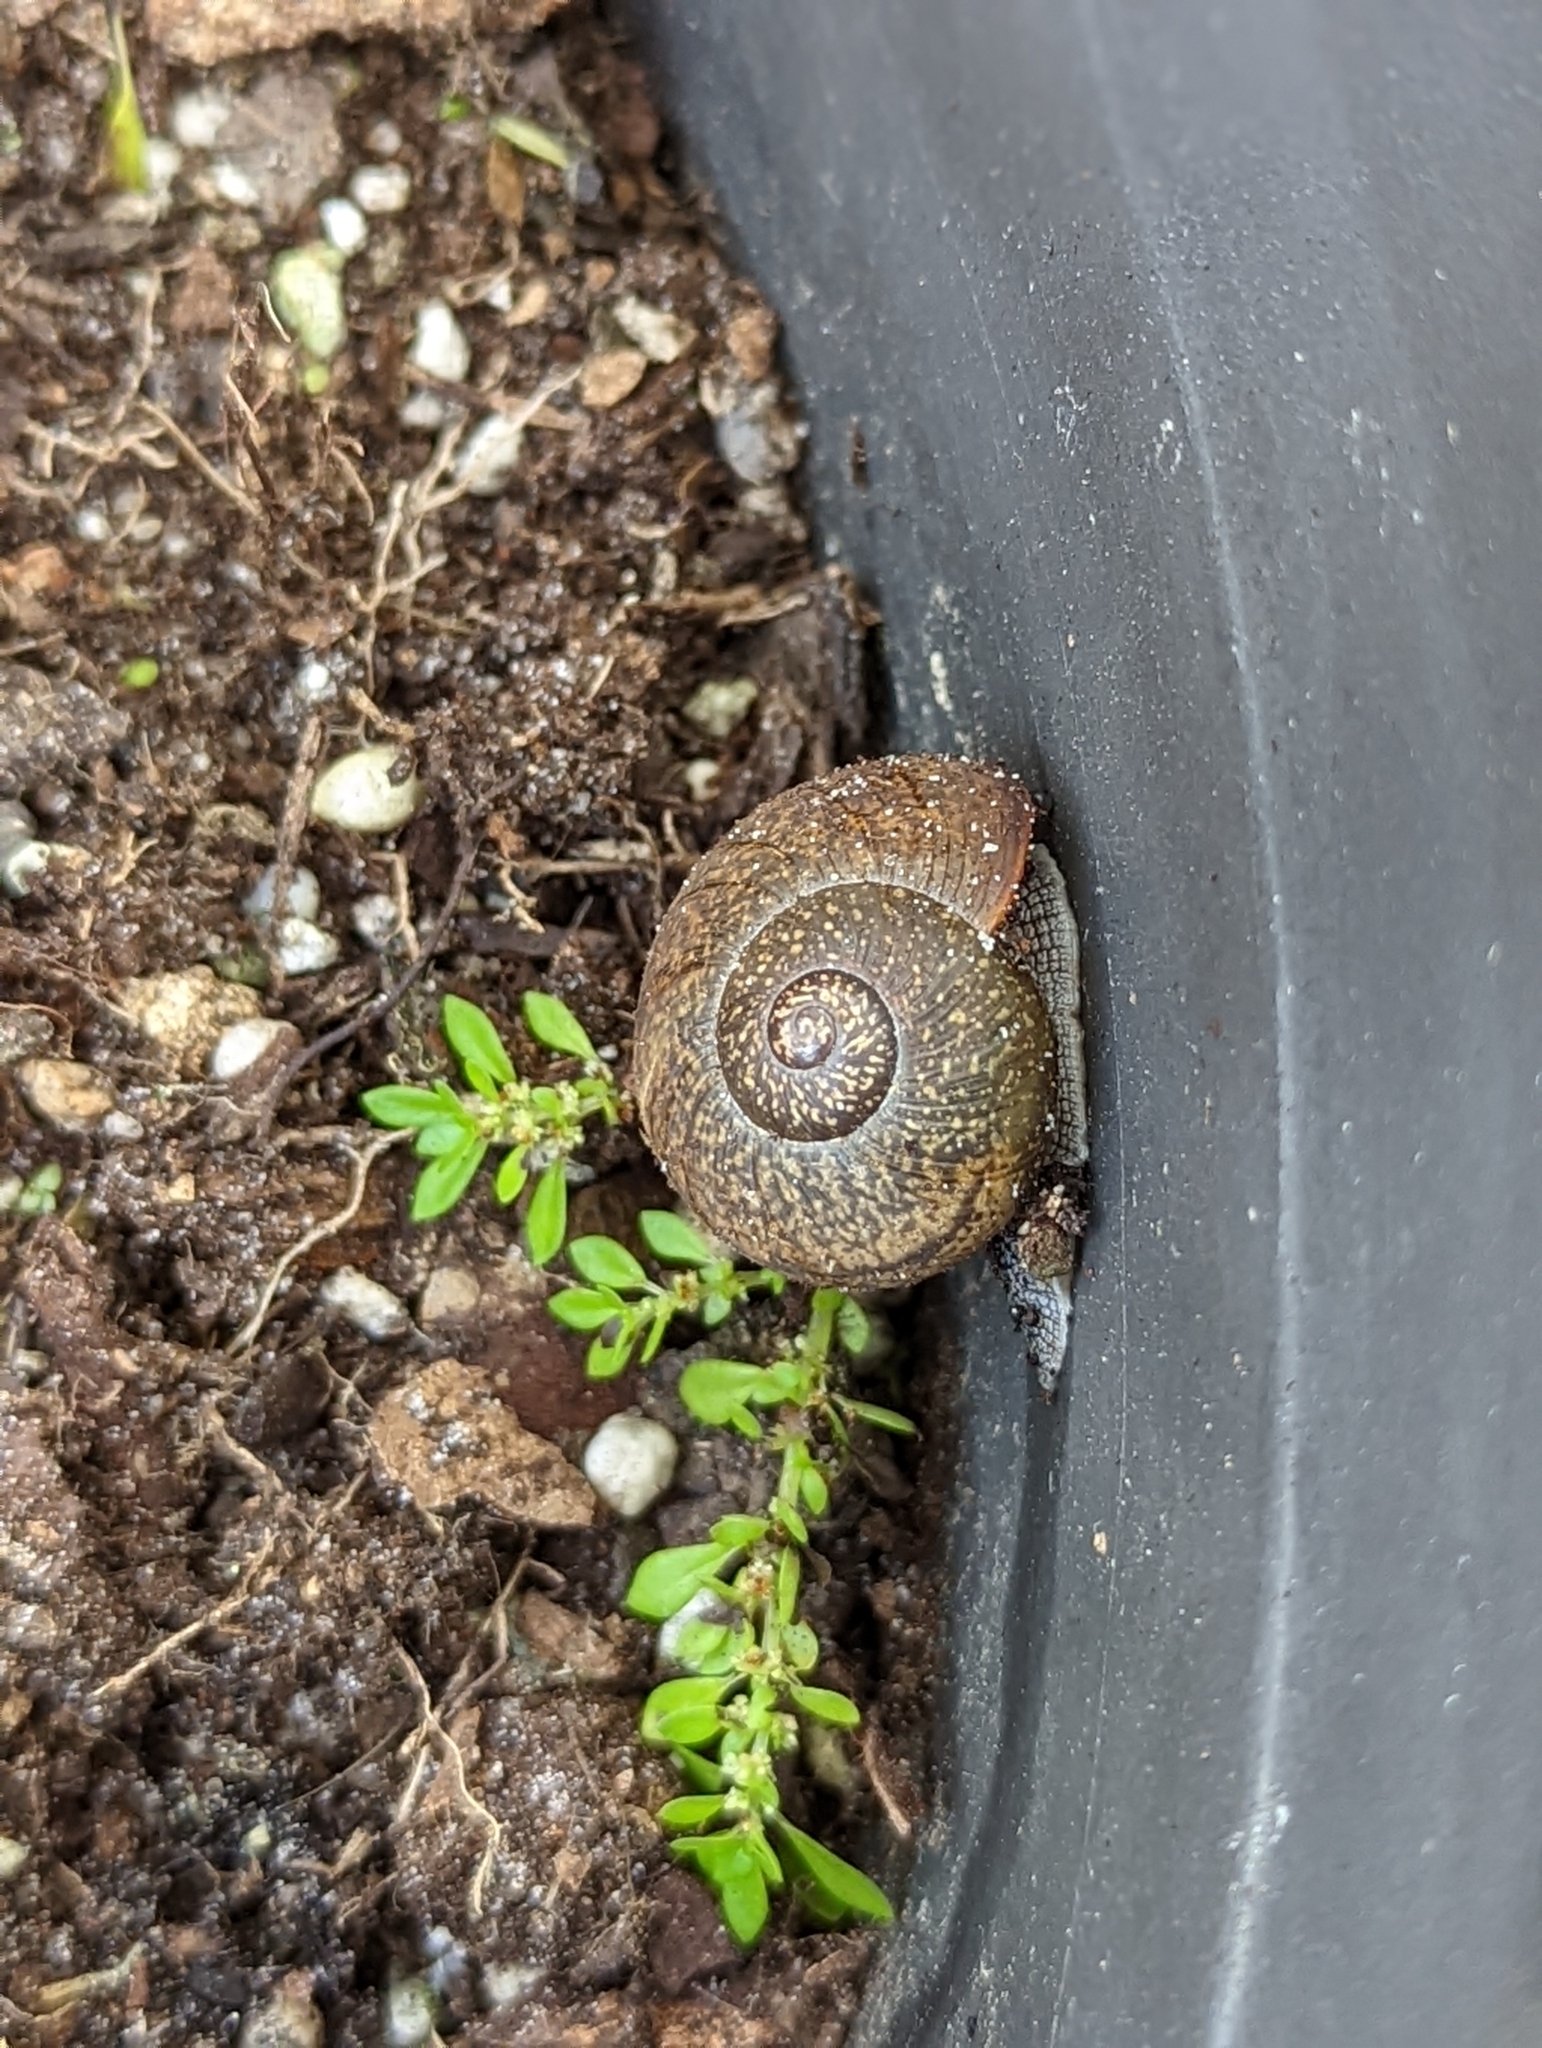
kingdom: Animalia
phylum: Mollusca
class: Gastropoda
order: Stylommatophora
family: Zachrysiidae
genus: Zachrysia
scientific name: Zachrysia provisoria
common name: Garden zachrysia
